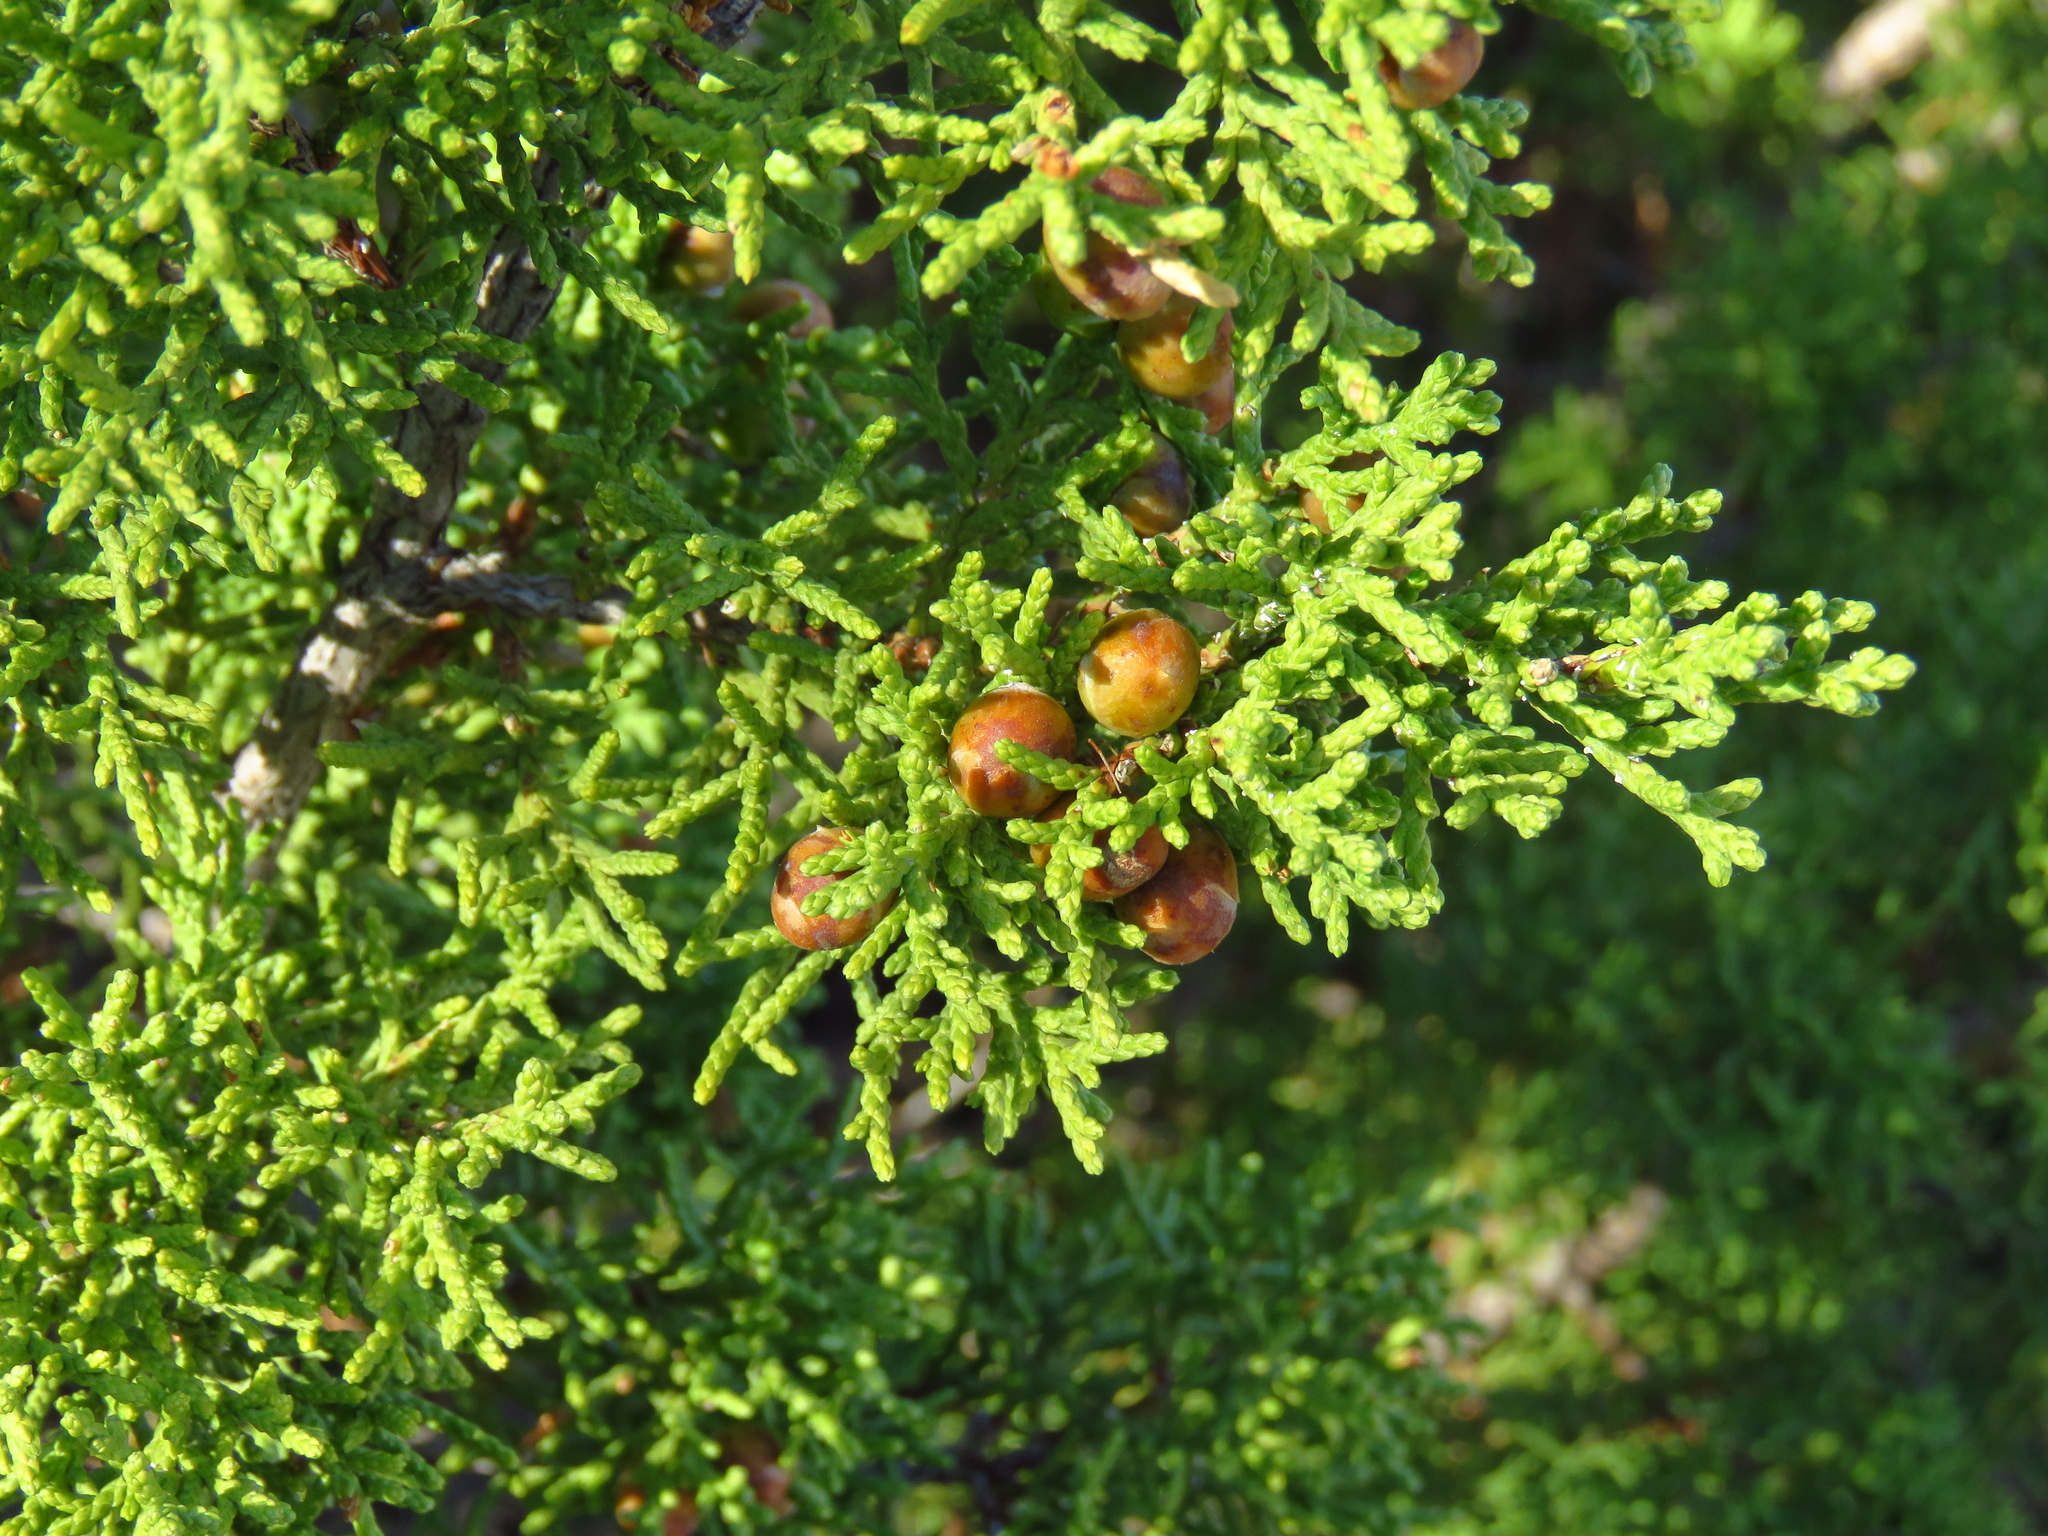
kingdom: Plantae
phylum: Tracheophyta
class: Pinopsida
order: Pinales
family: Cupressaceae
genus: Juniperus
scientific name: Juniperus pinchotii
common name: Pinchot juniper
